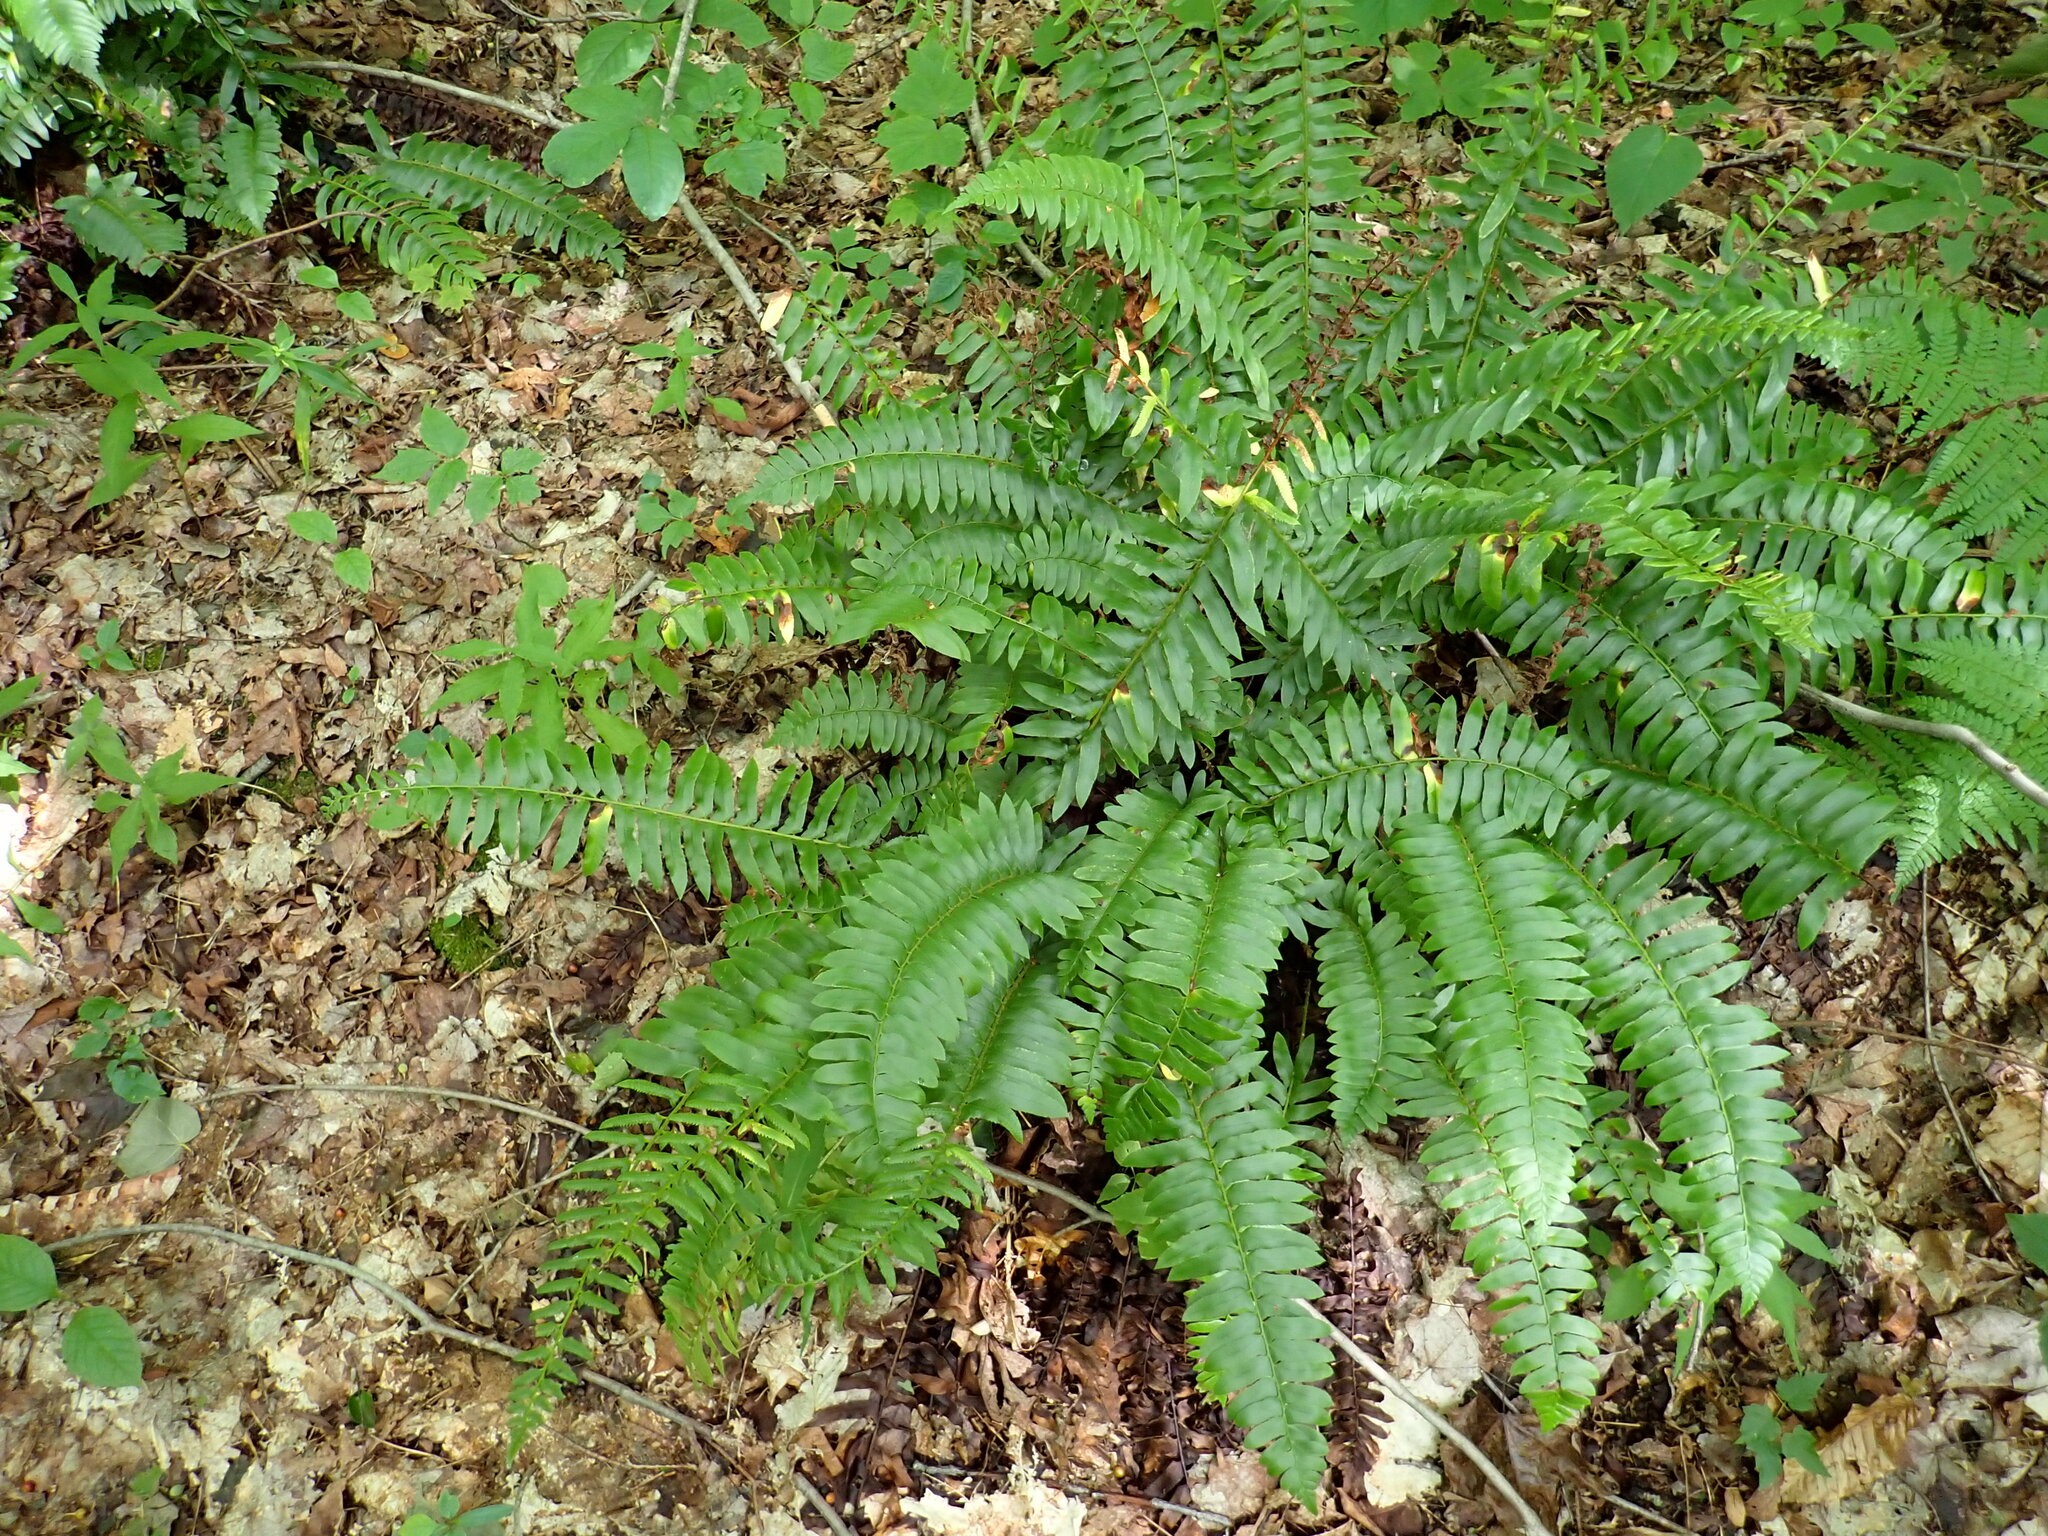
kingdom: Plantae
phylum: Tracheophyta
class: Polypodiopsida
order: Polypodiales
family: Dryopteridaceae
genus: Polystichum
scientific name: Polystichum acrostichoides
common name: Christmas fern
